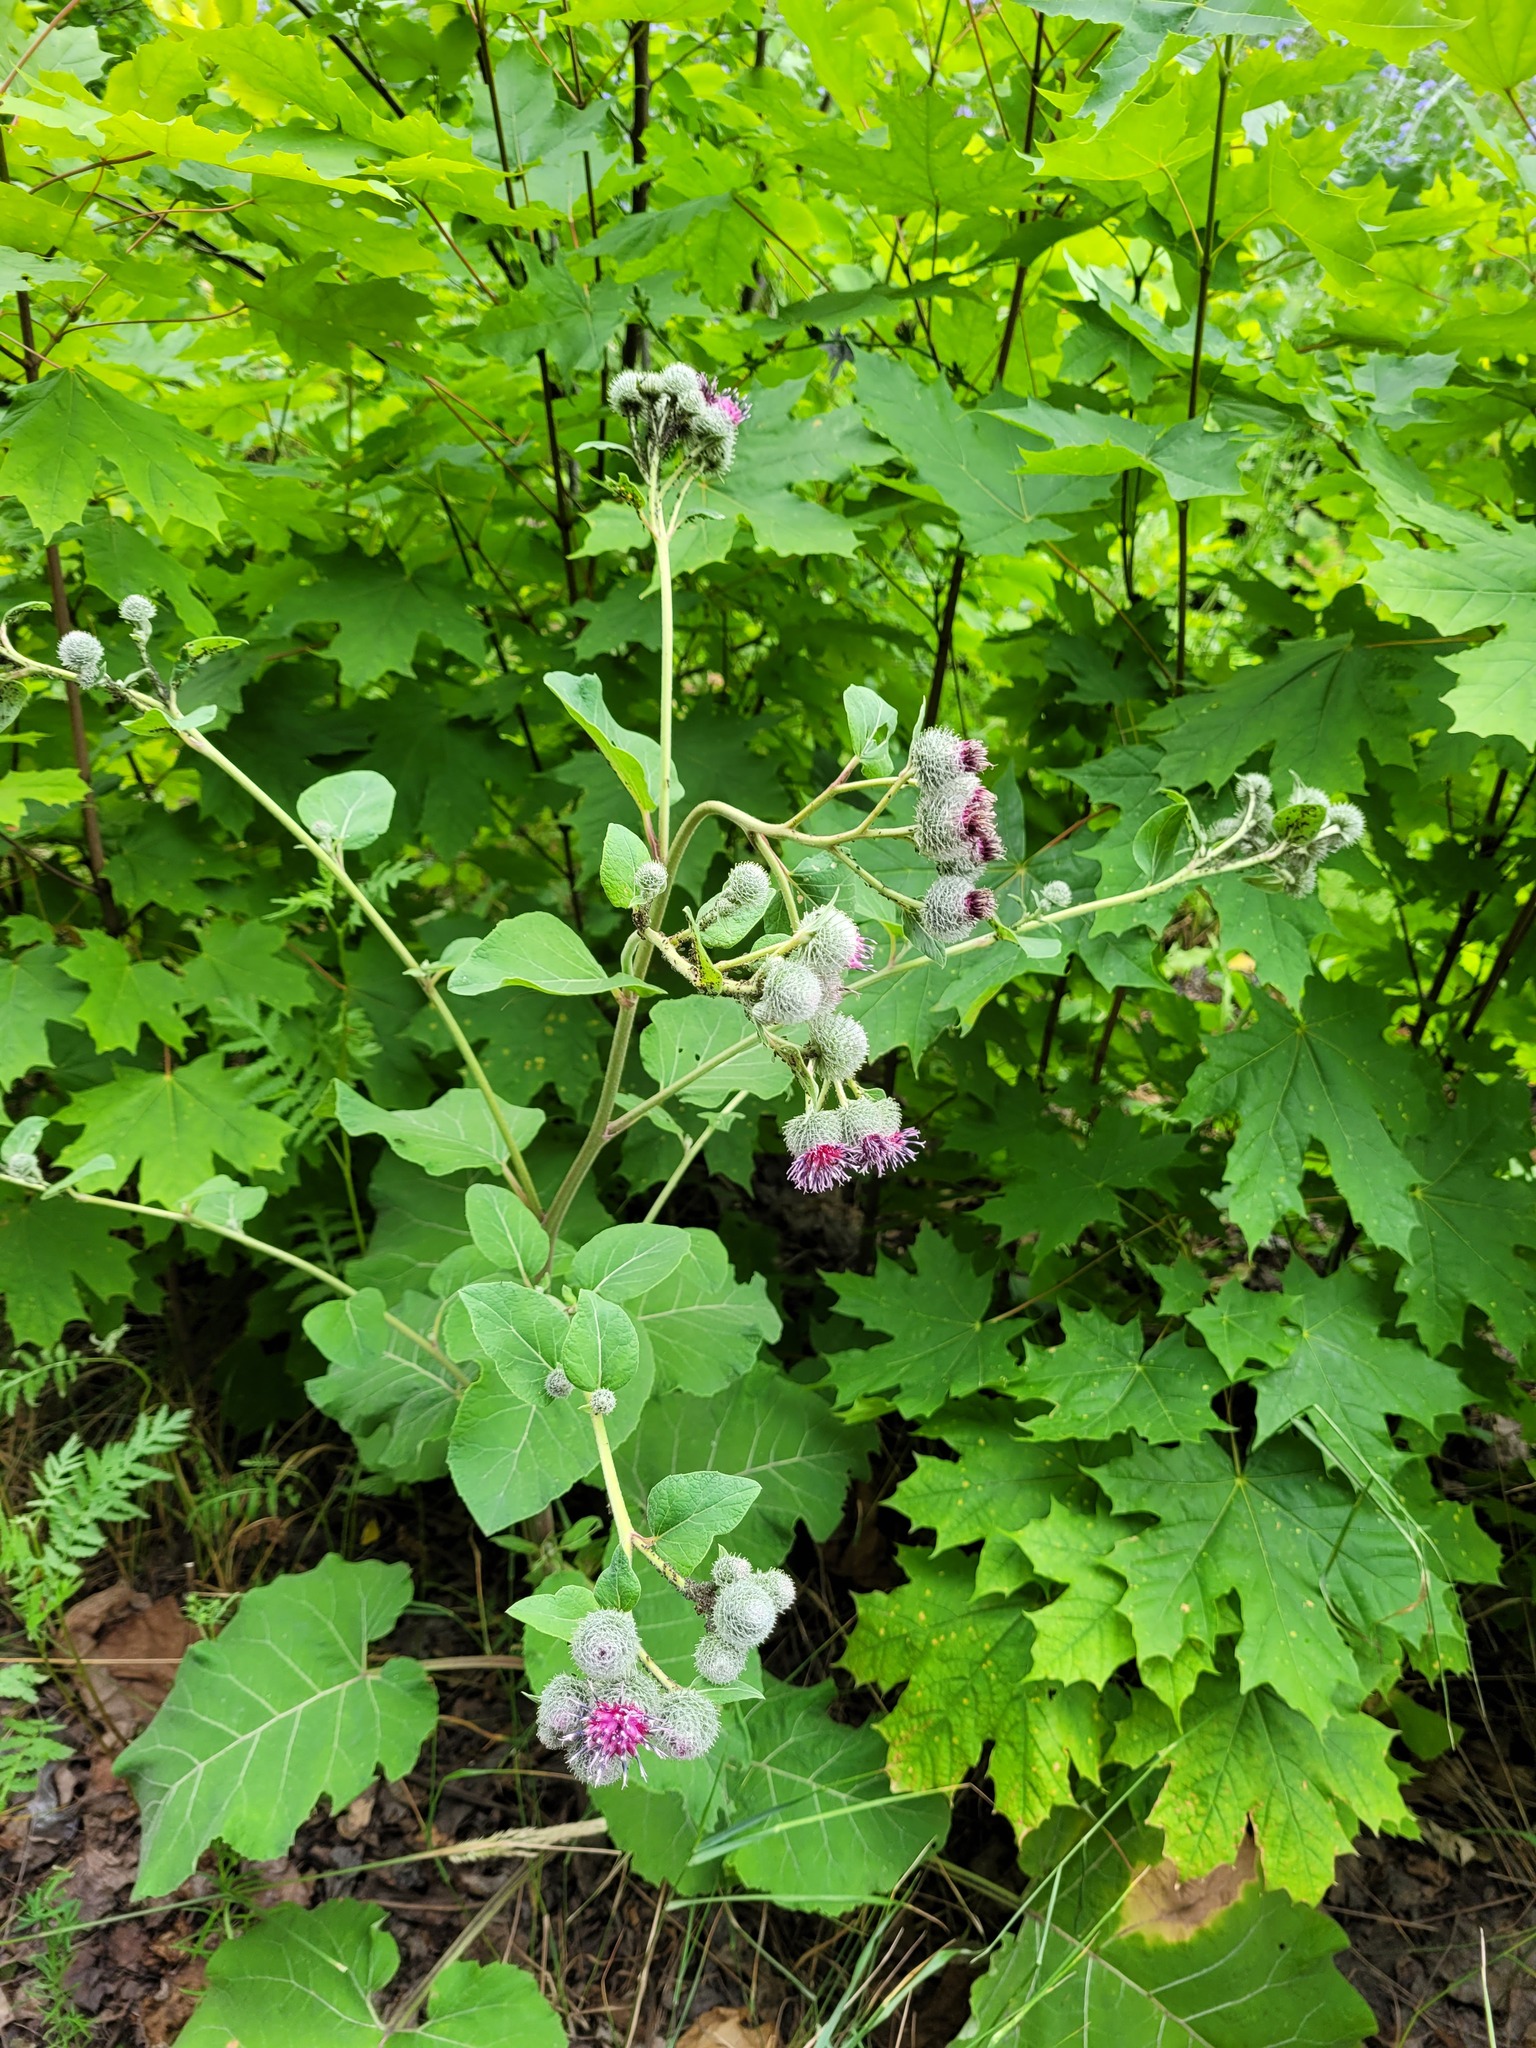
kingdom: Plantae
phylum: Tracheophyta
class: Magnoliopsida
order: Asterales
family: Asteraceae
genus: Arctium
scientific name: Arctium tomentosum
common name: Woolly burdock
